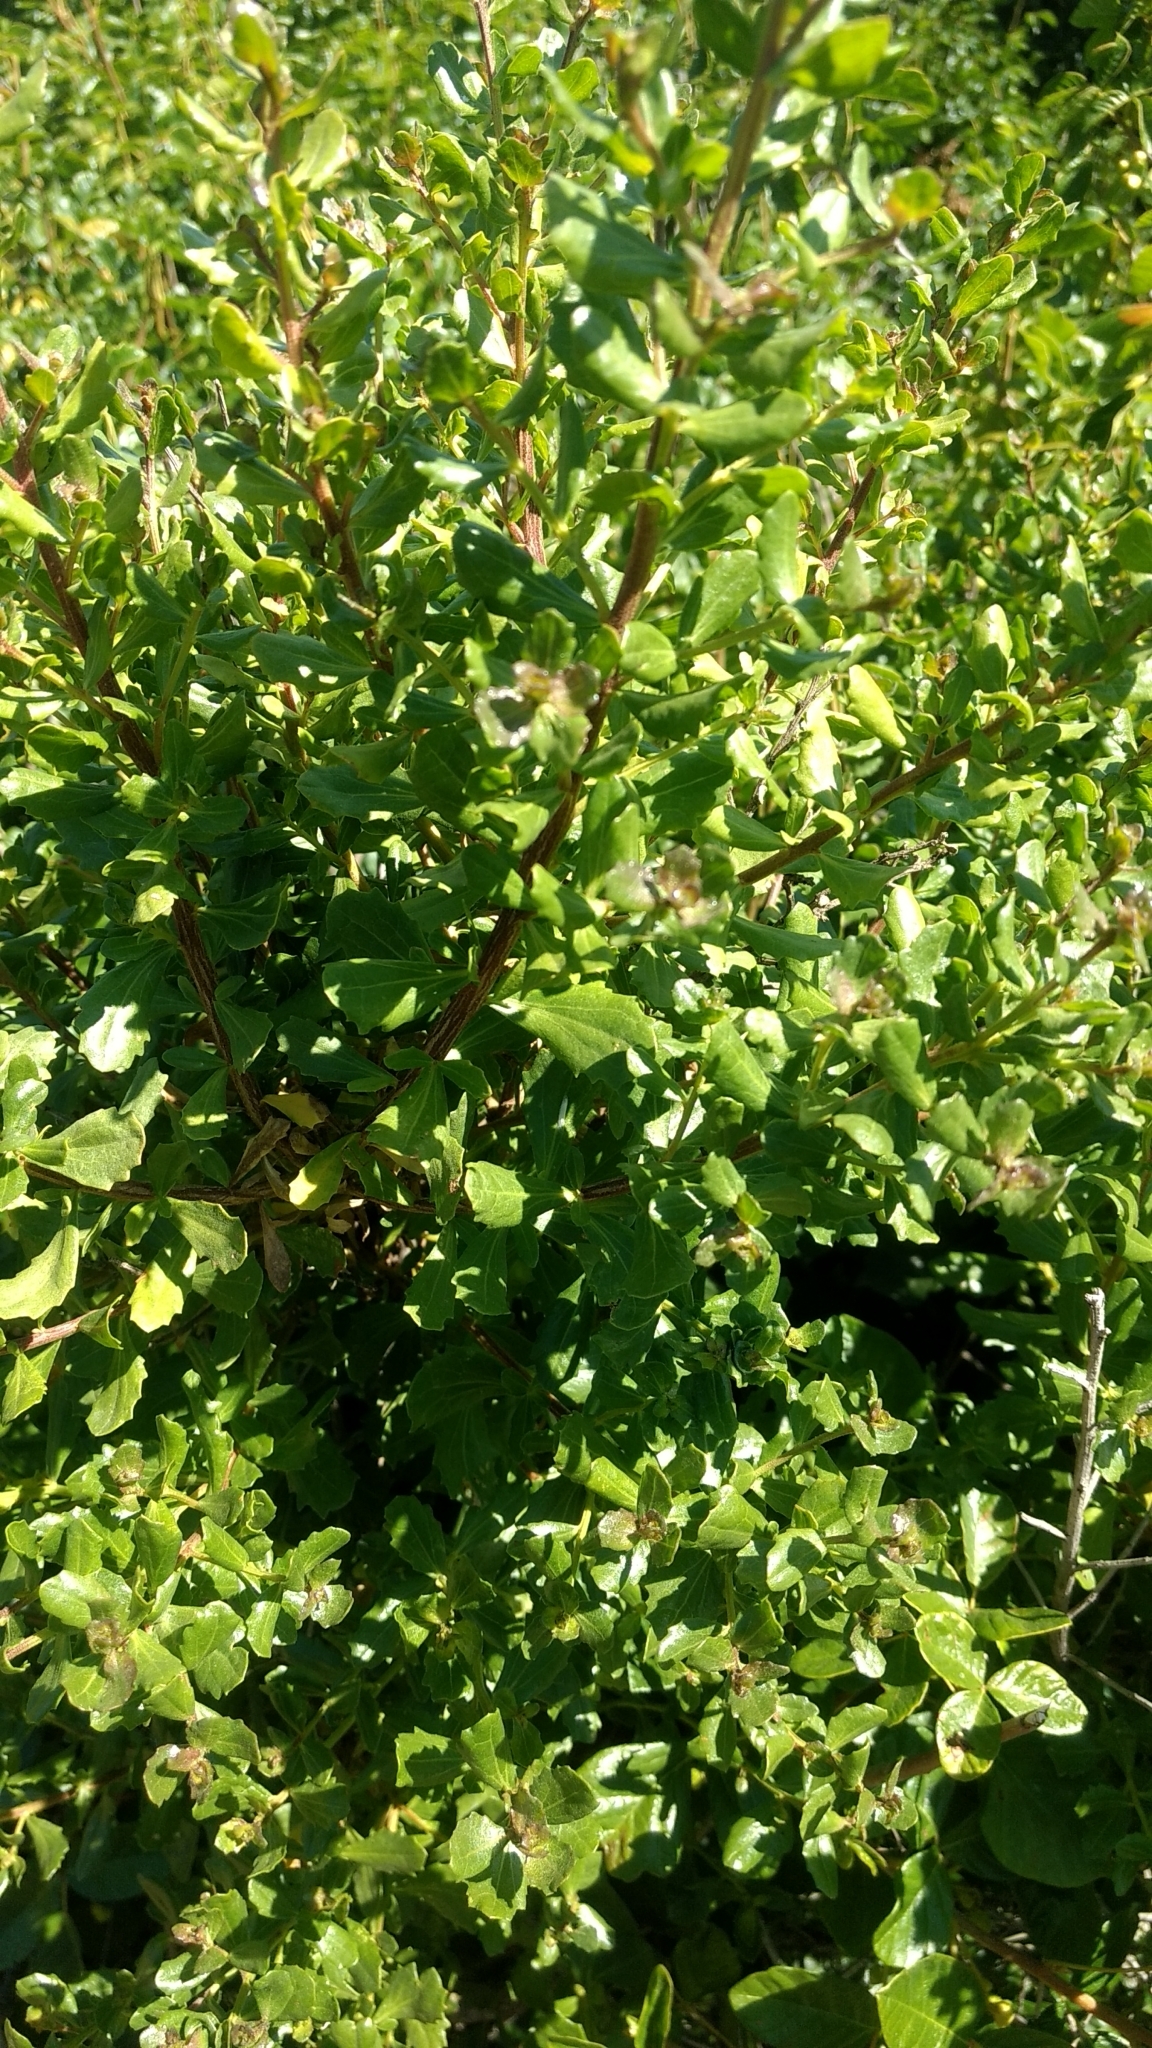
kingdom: Plantae
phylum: Tracheophyta
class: Magnoliopsida
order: Asterales
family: Asteraceae
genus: Baccharis
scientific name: Baccharis pilularis
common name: Coyotebrush
